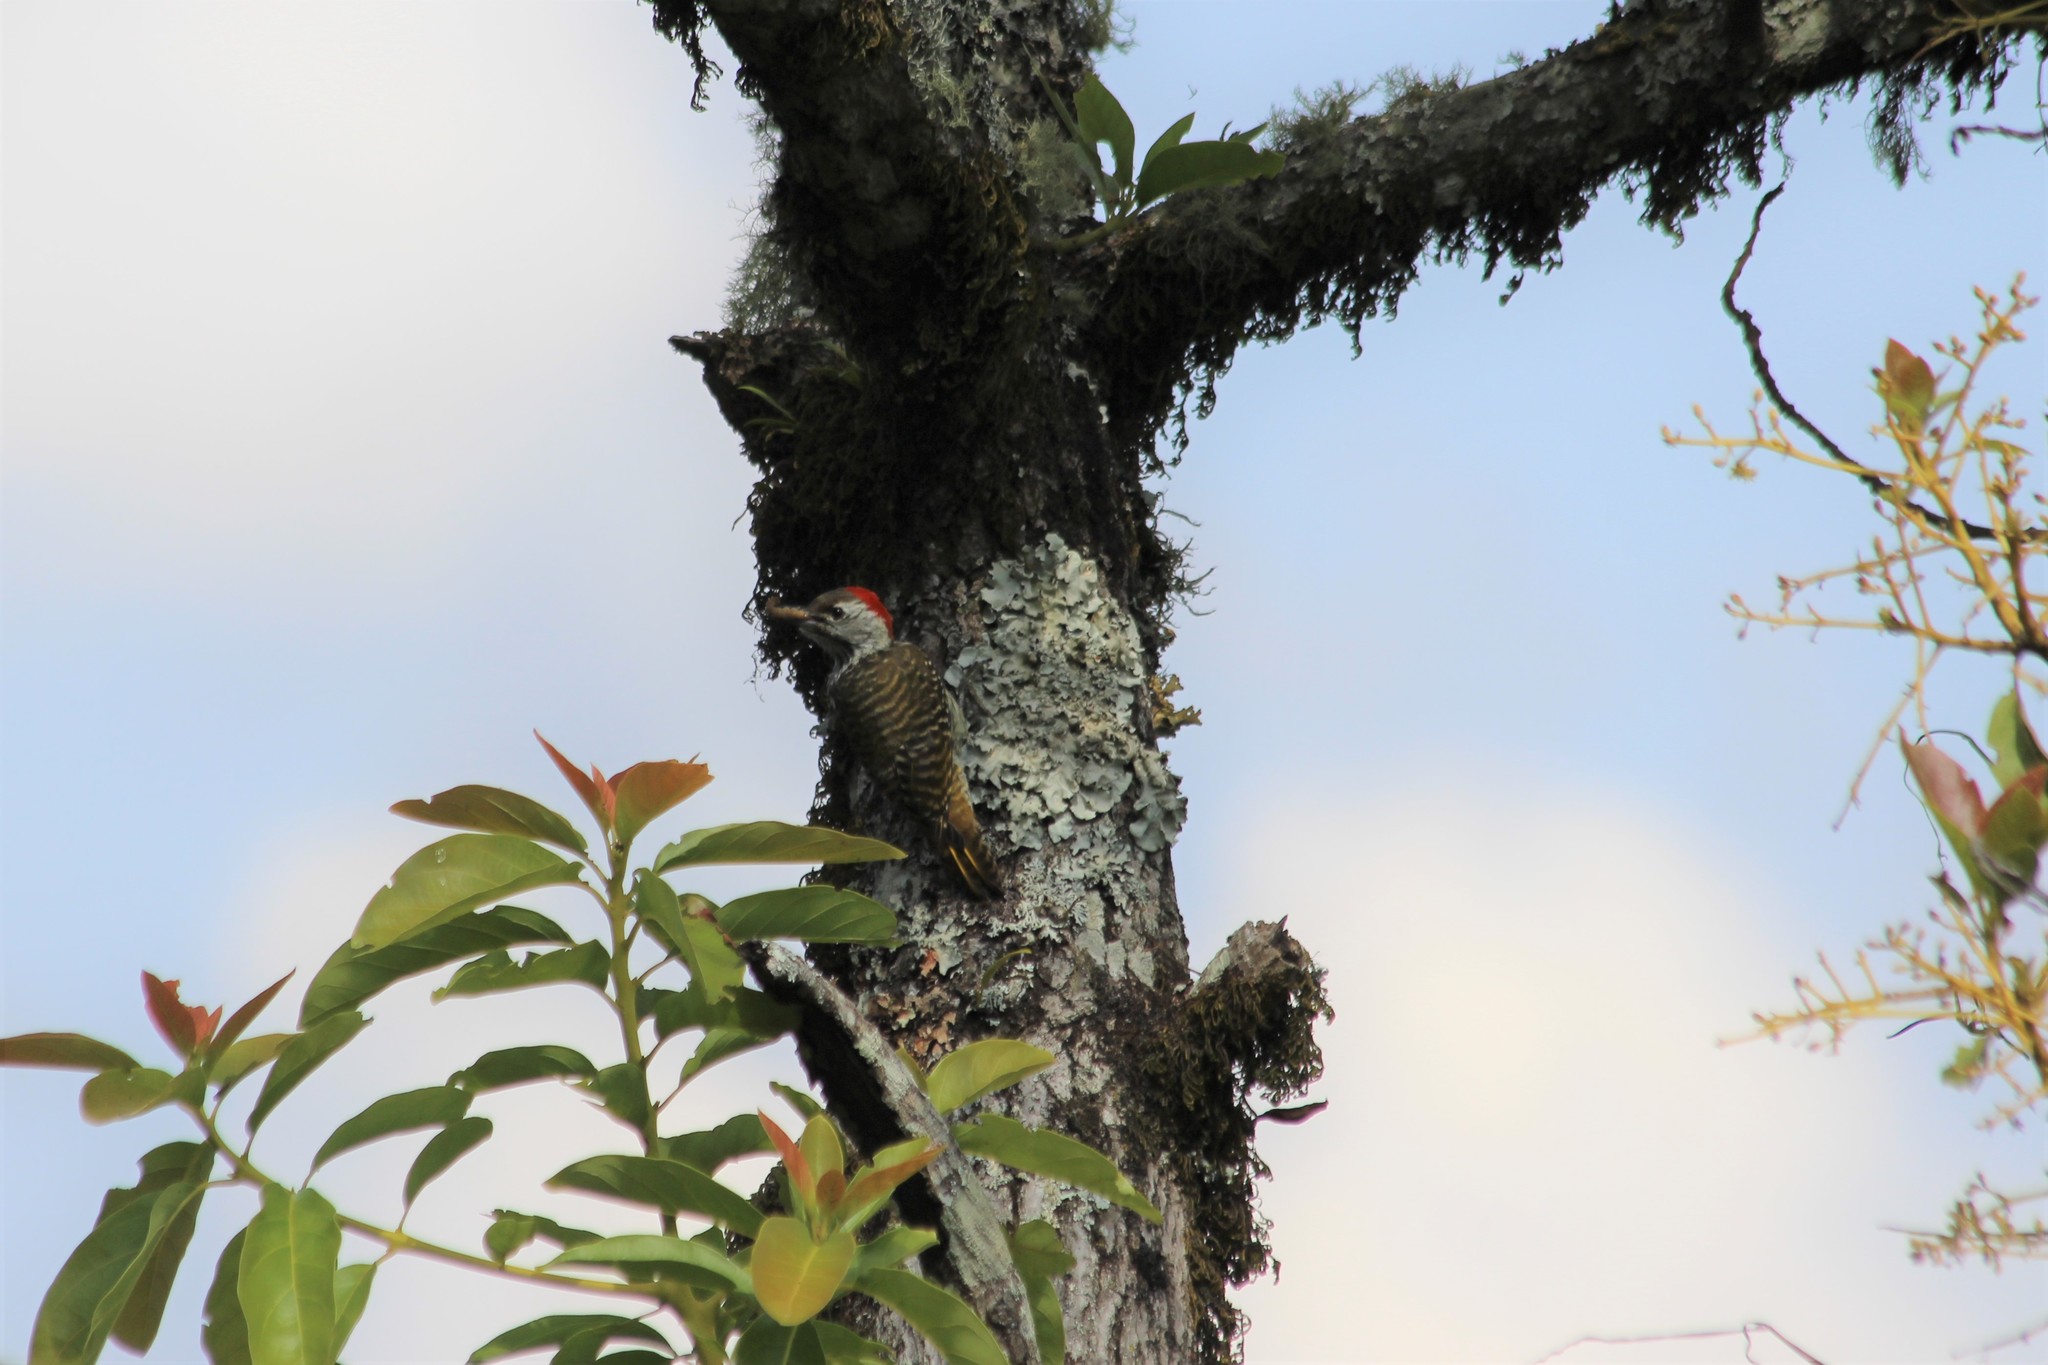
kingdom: Animalia
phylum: Chordata
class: Aves
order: Piciformes
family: Picidae
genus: Dendropicos
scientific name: Dendropicos fuscescens
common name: Cardinal woodpecker
